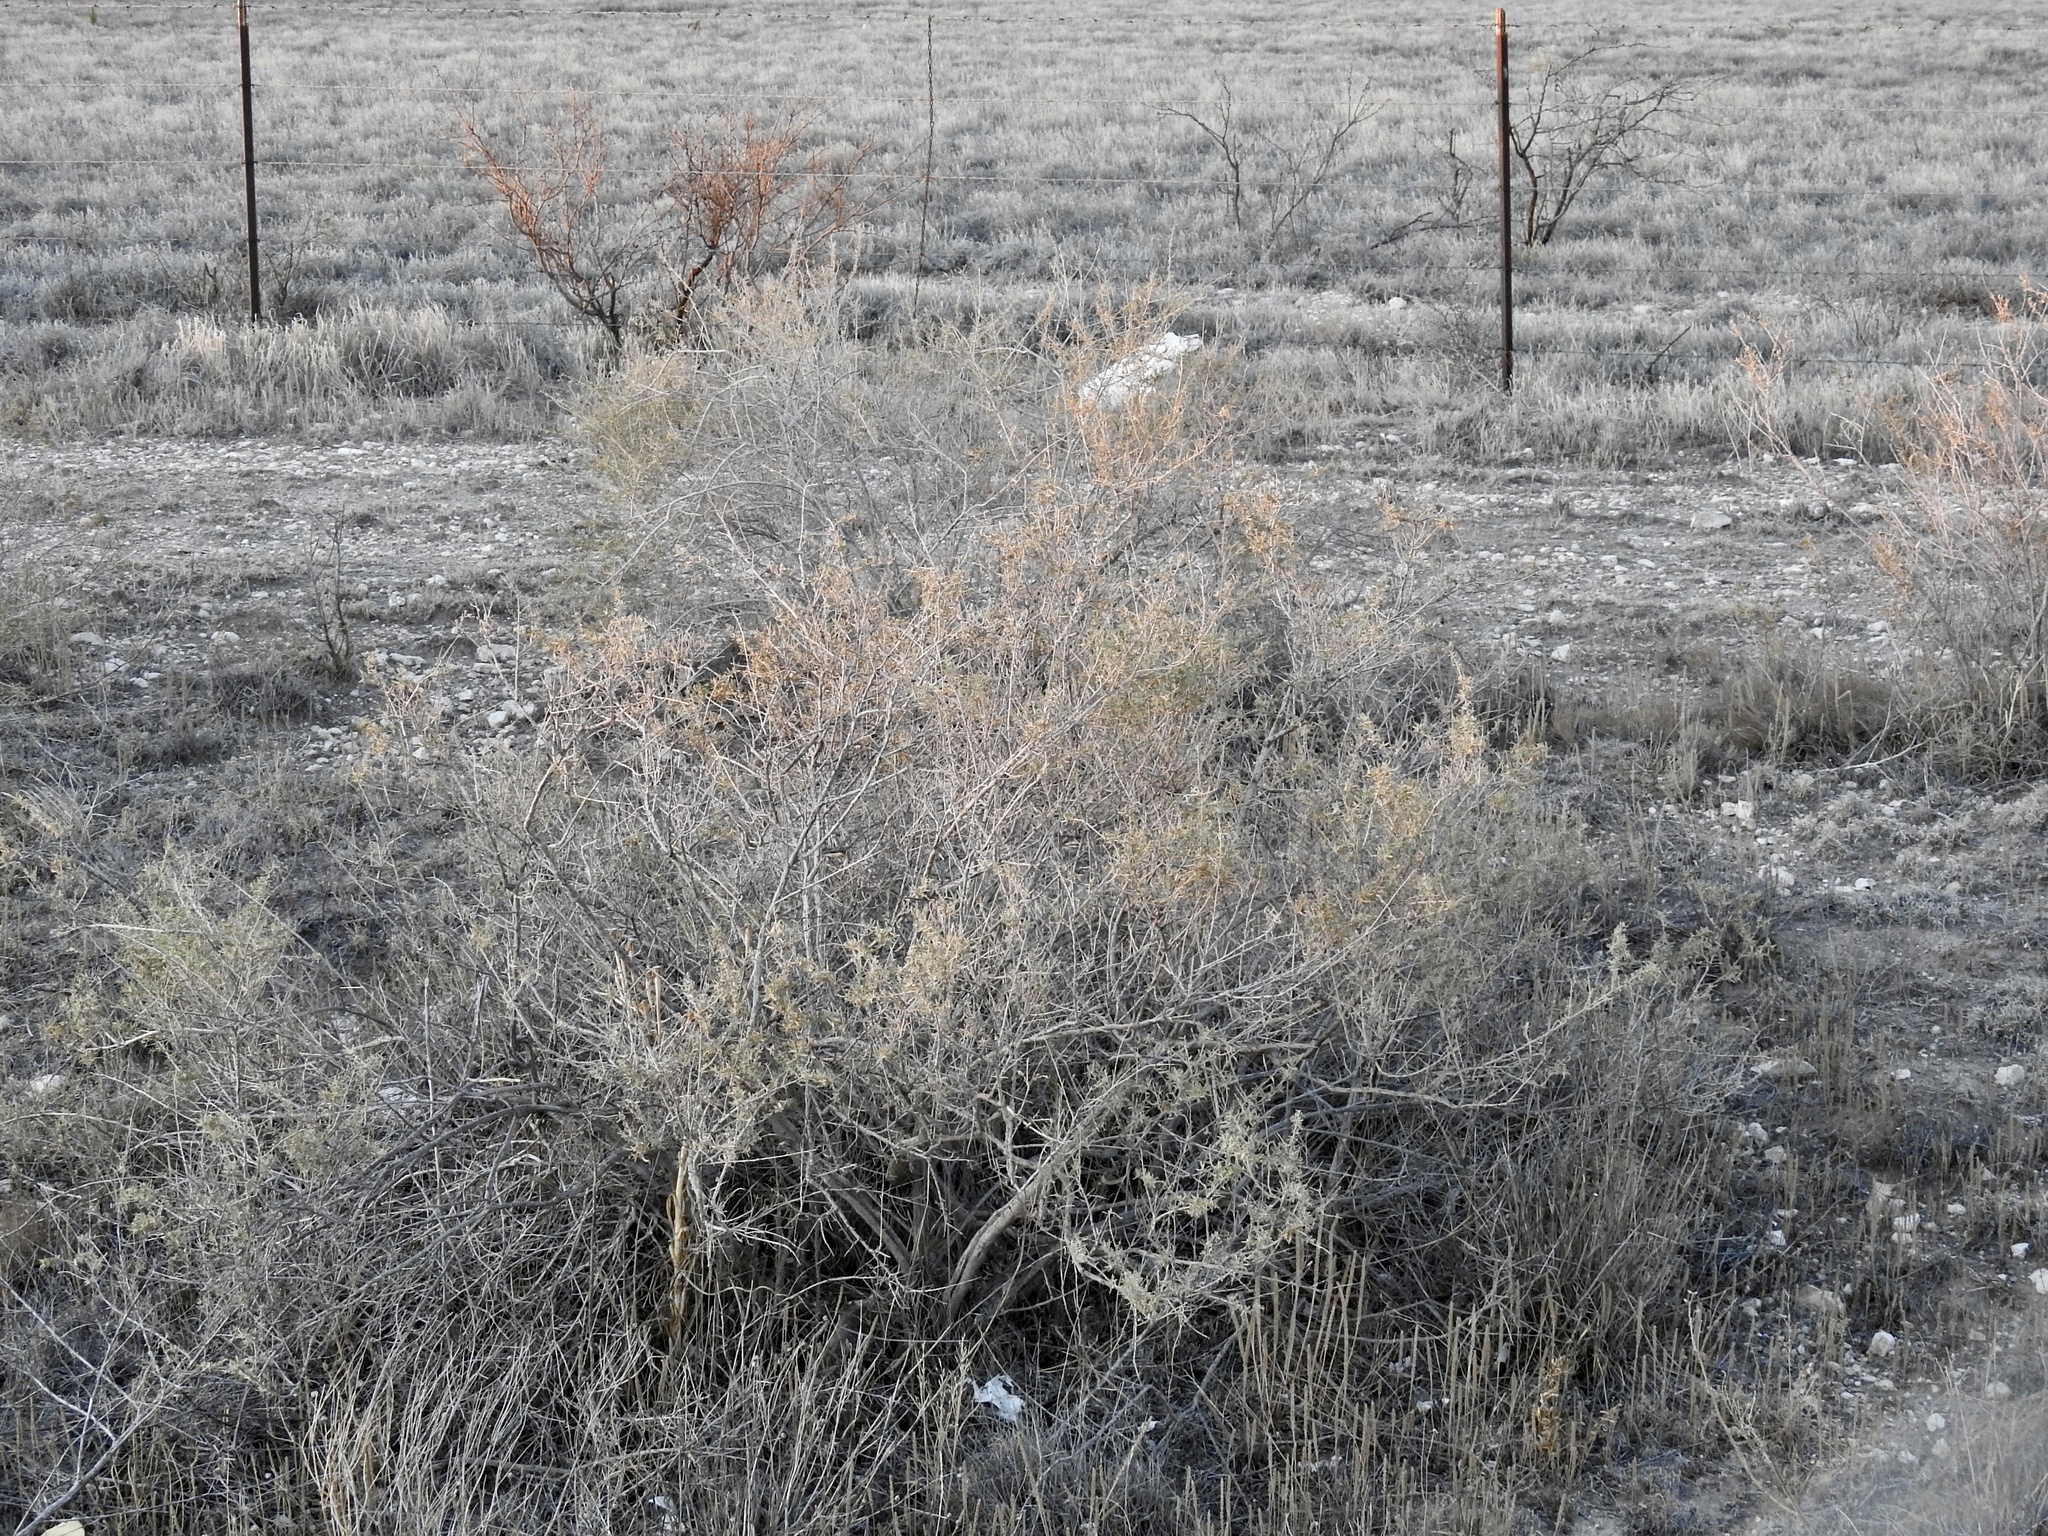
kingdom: Plantae
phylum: Tracheophyta
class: Magnoliopsida
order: Caryophyllales
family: Amaranthaceae
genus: Atriplex
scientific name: Atriplex canescens
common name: Four-wing saltbush
